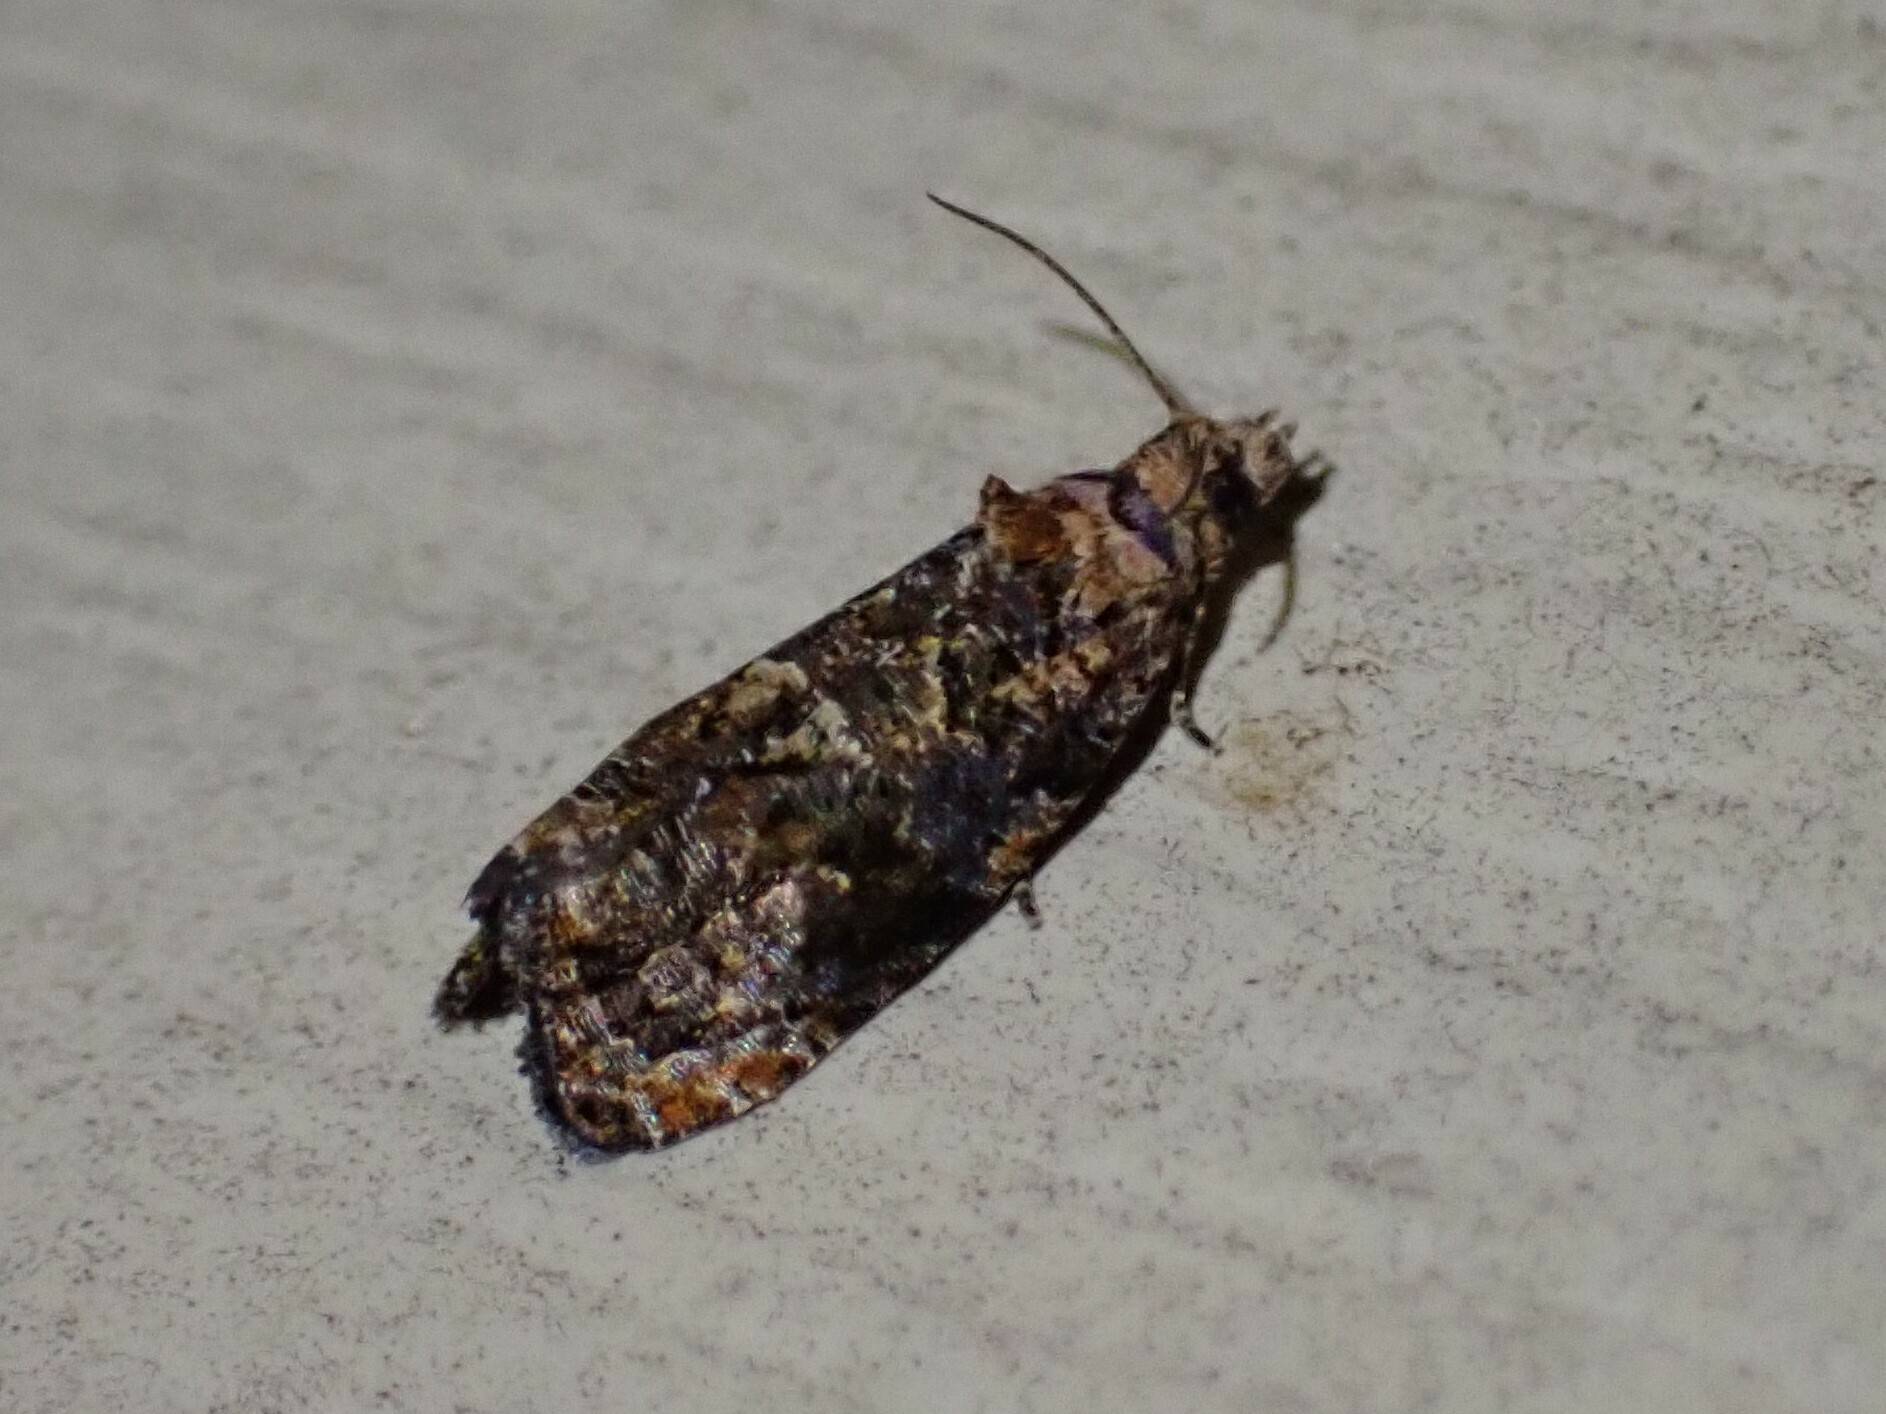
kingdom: Animalia
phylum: Arthropoda
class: Insecta
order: Lepidoptera
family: Tortricidae
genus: Endothenia
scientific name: Endothenia hebesana
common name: Verbena bud moth
